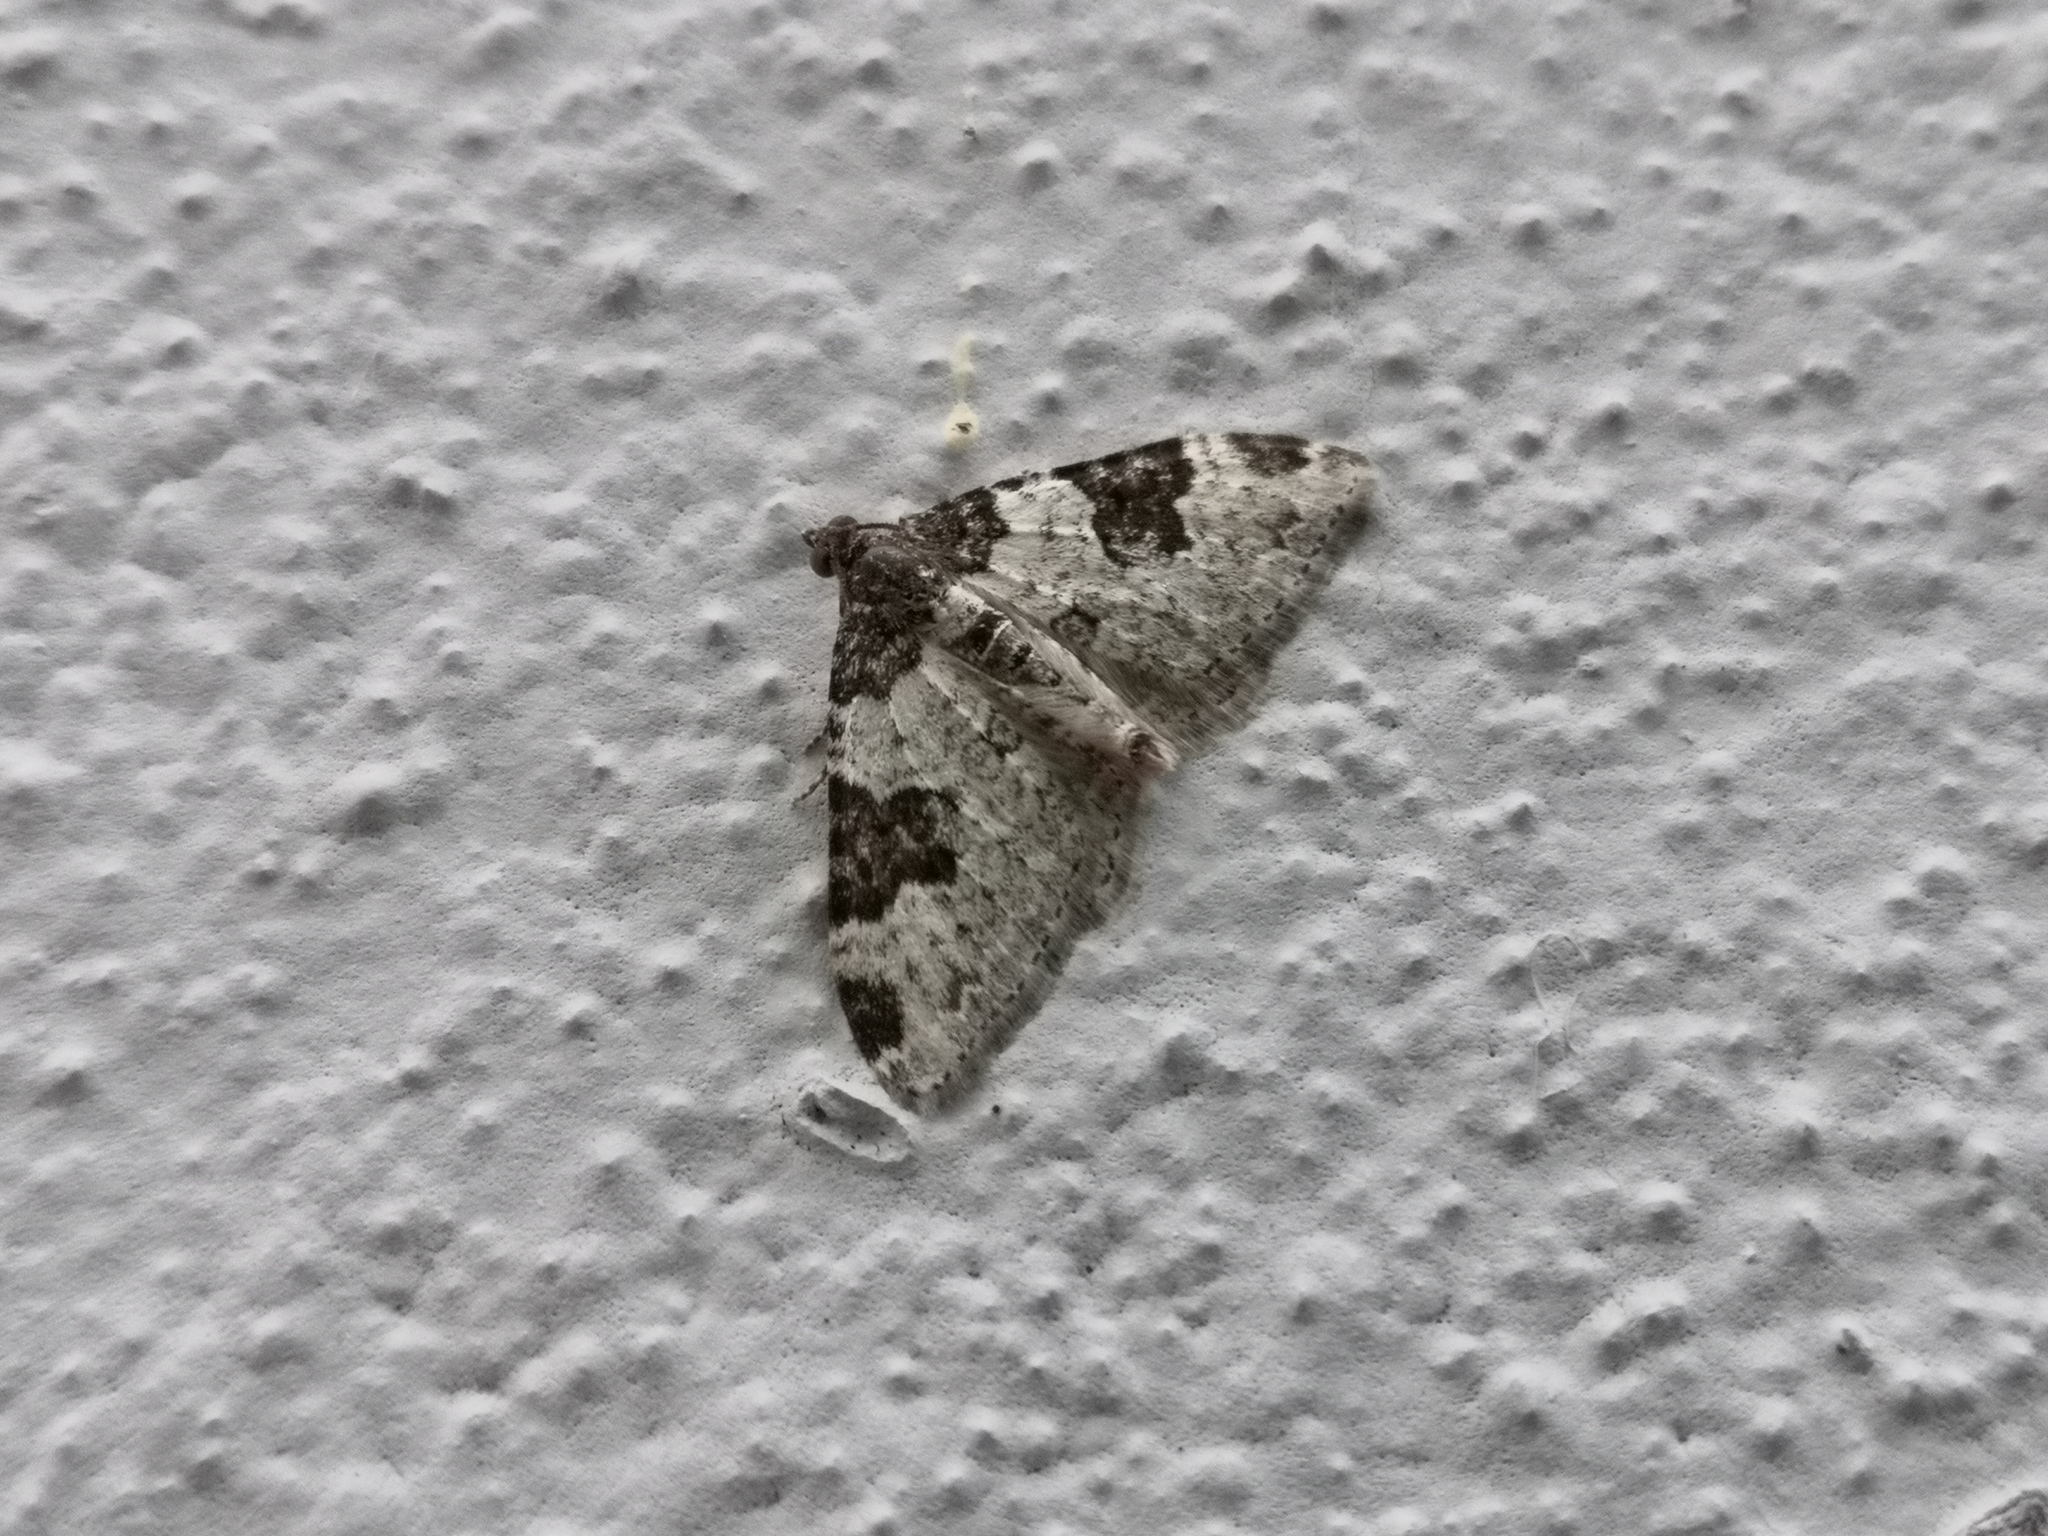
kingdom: Animalia
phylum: Arthropoda
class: Insecta
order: Lepidoptera
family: Geometridae
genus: Xanthorhoe
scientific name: Xanthorhoe fluctuata
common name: Garden carpet
